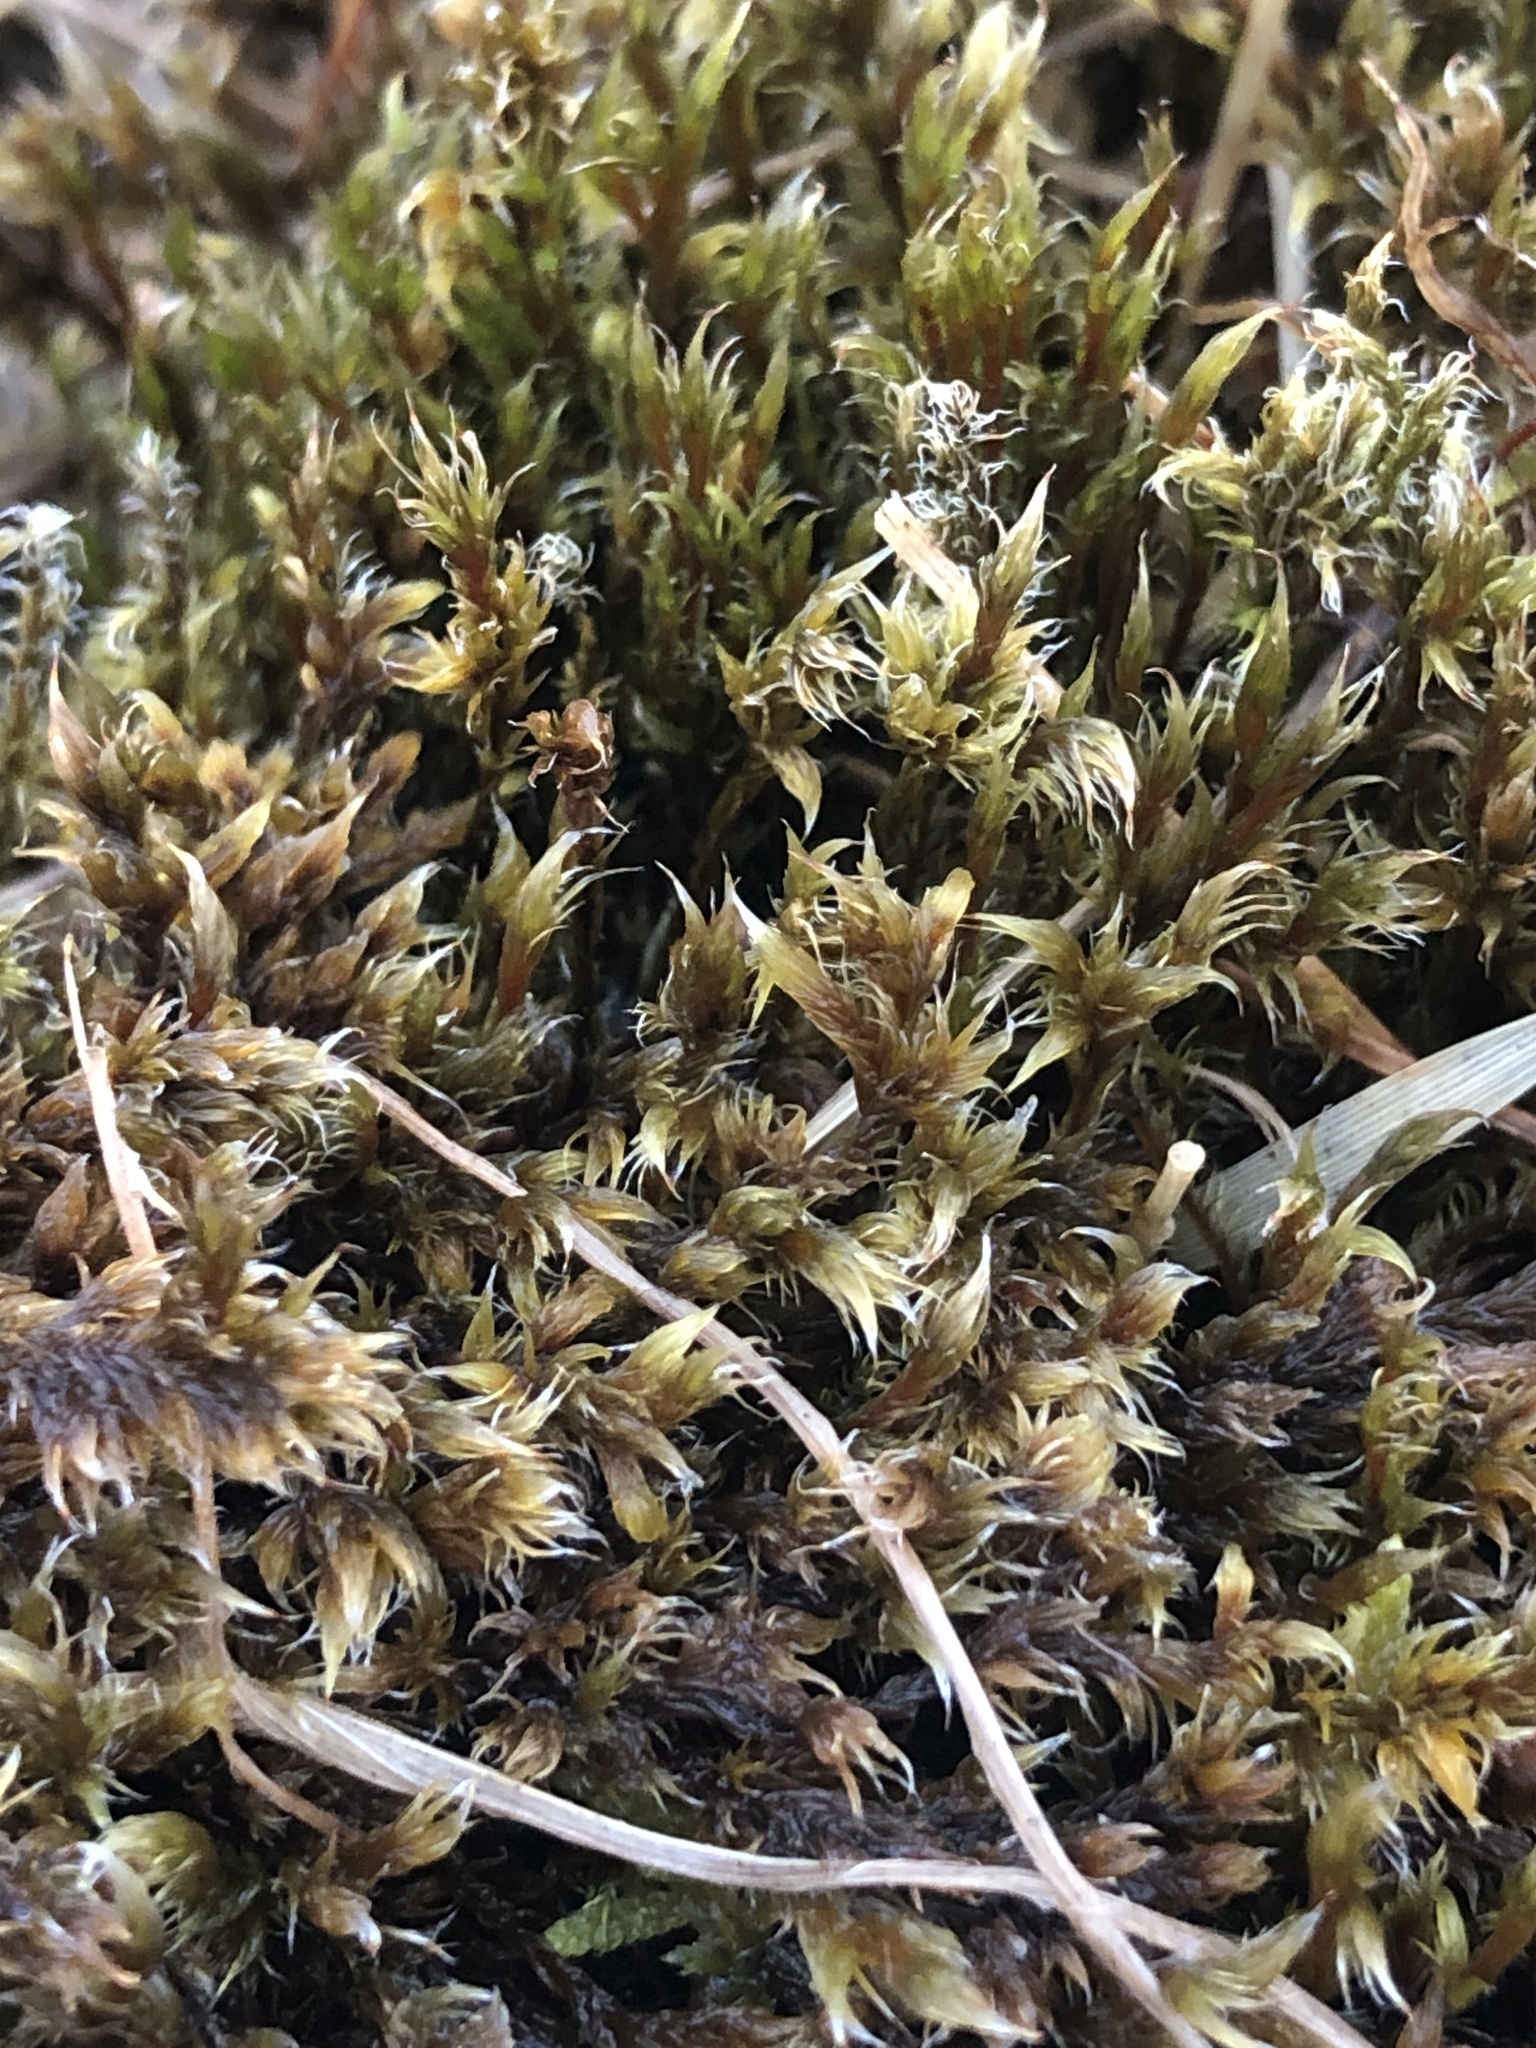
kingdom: Plantae
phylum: Bryophyta
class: Bryopsida
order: Grimmiales
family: Grimmiaceae
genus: Racomitrium
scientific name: Racomitrium lanuginosum
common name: Hoary rock moss
